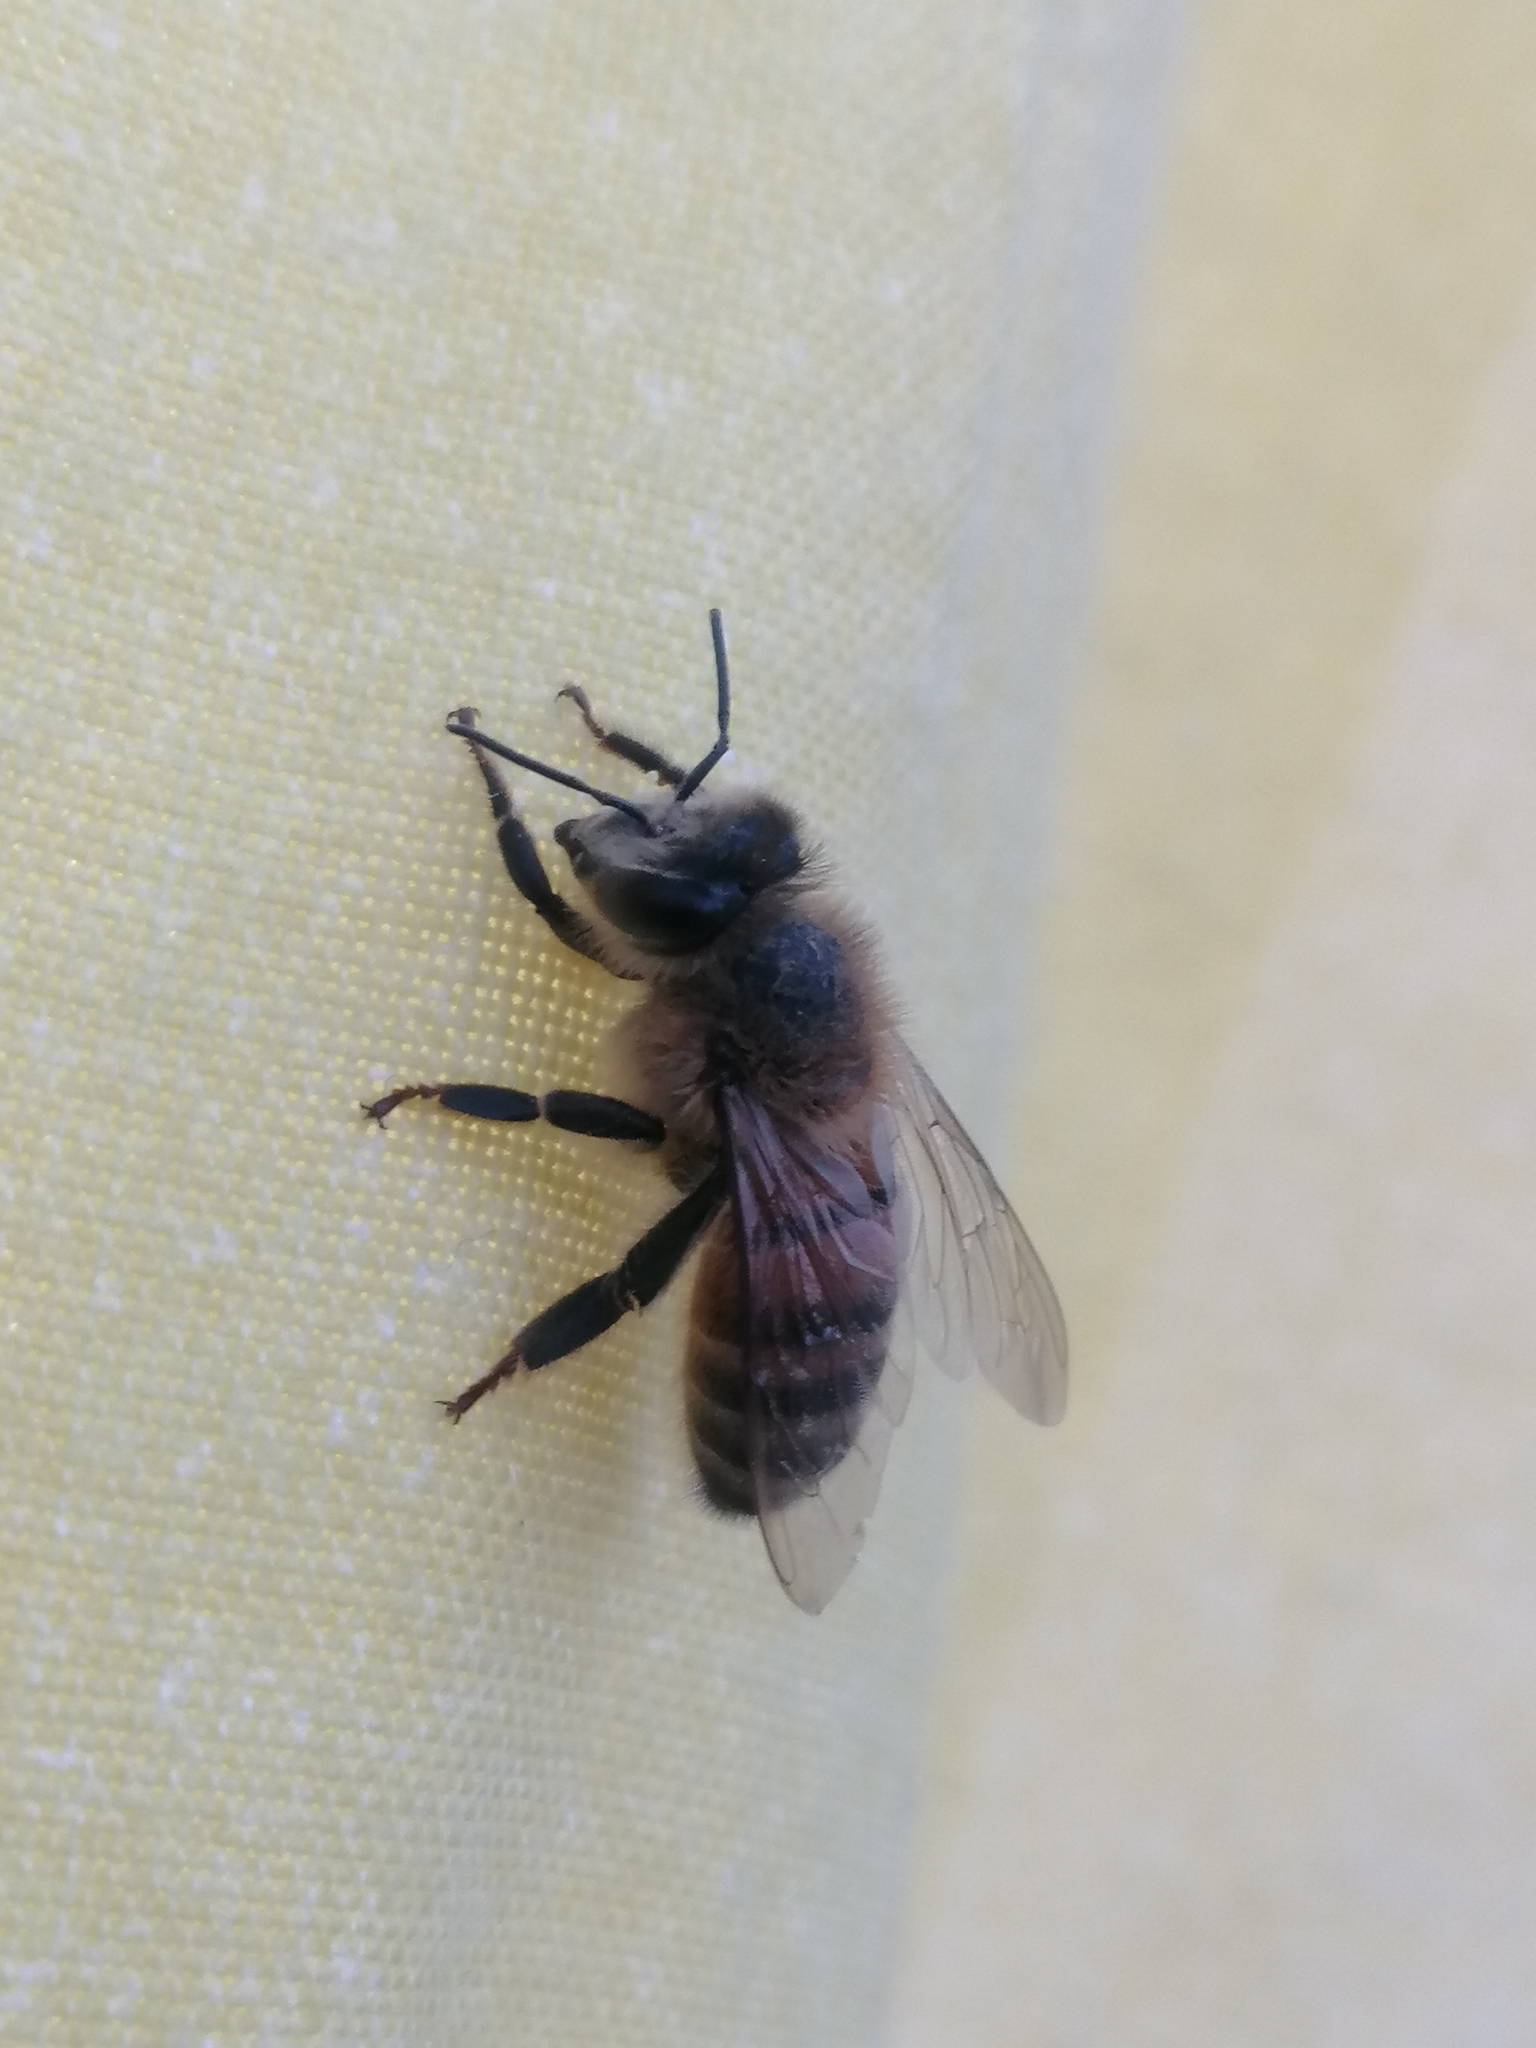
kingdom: Animalia
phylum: Arthropoda
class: Insecta
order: Hymenoptera
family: Apidae
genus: Apis
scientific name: Apis mellifera
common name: Honey bee
